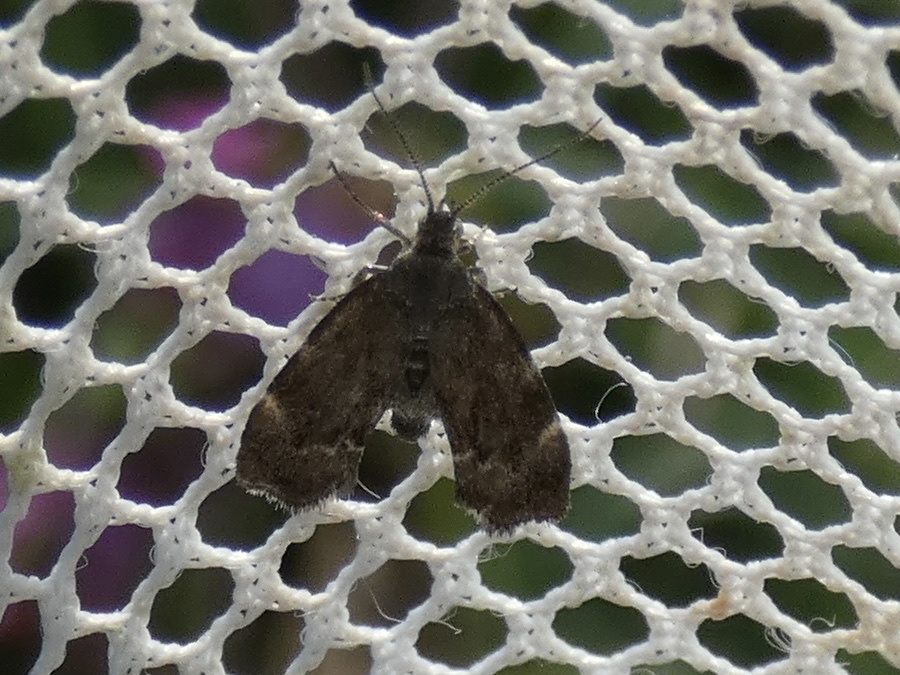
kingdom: Animalia
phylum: Arthropoda
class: Insecta
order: Lepidoptera
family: Choreutidae
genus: Anthophila
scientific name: Anthophila fabriciana
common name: Nettle-tap
